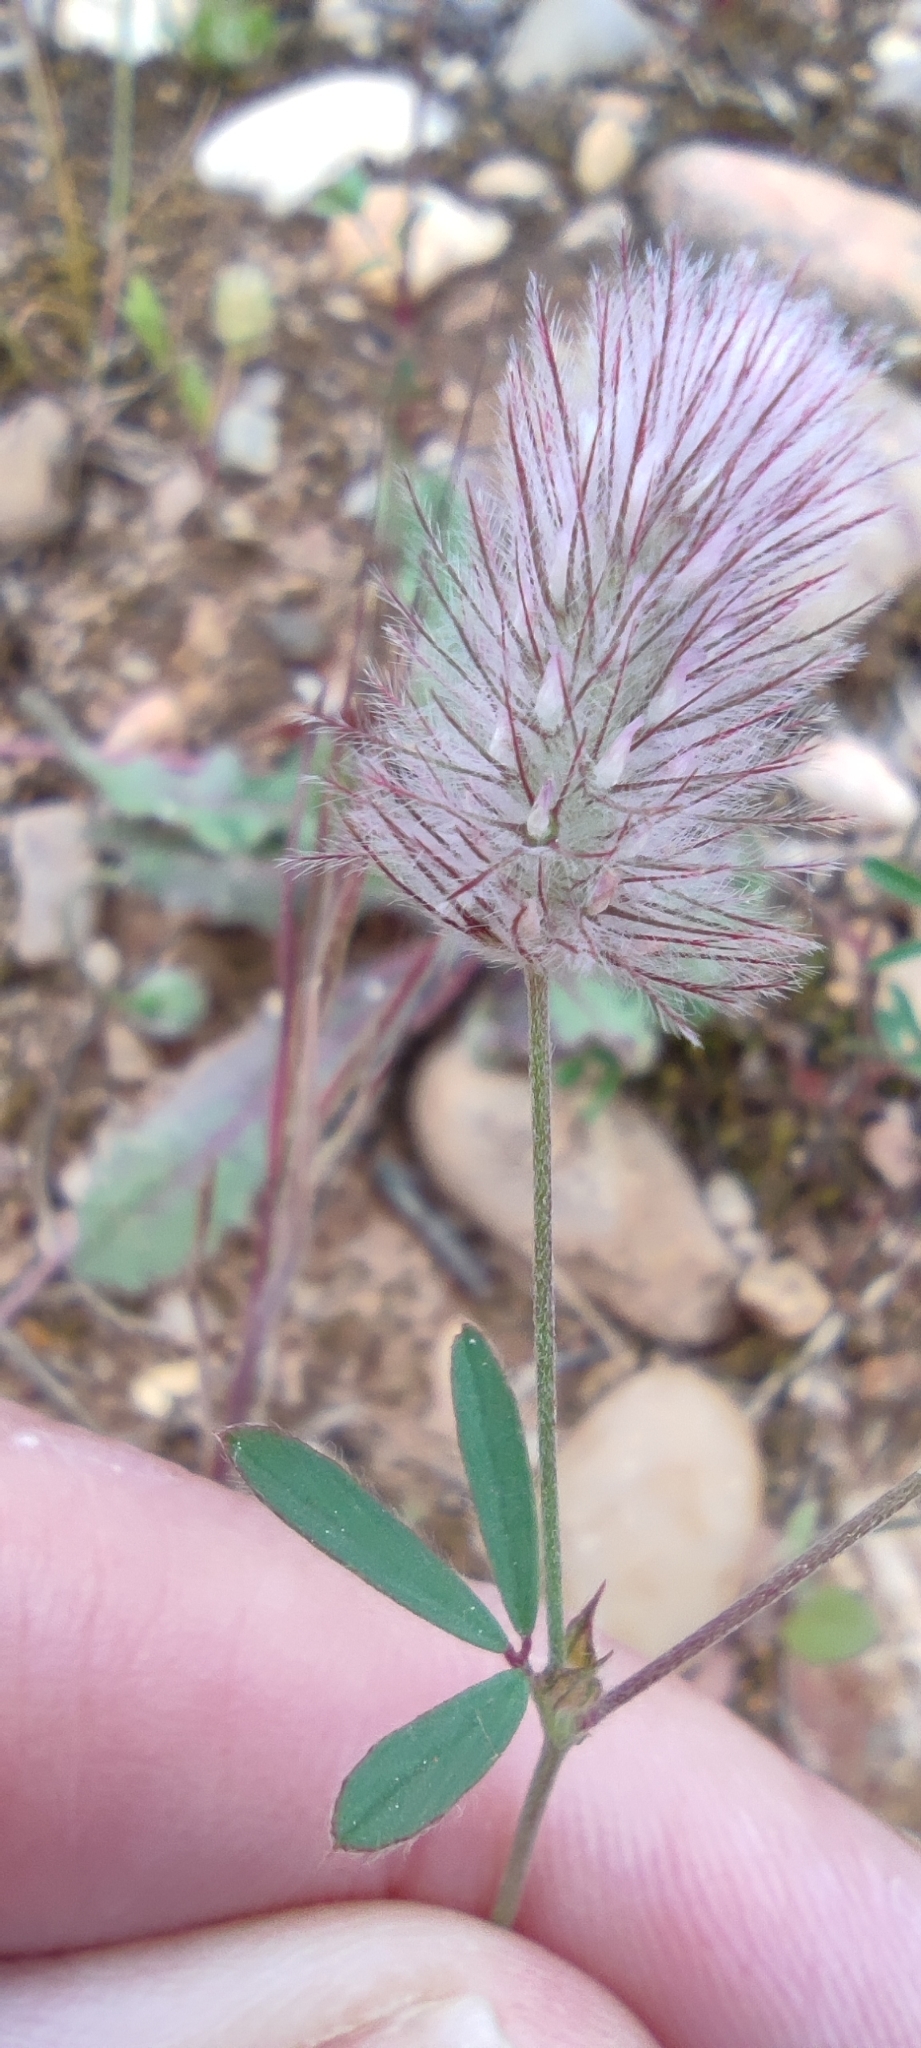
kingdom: Plantae
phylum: Tracheophyta
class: Magnoliopsida
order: Fabales
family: Fabaceae
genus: Trifolium
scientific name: Trifolium arvense
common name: Hare's-foot clover
